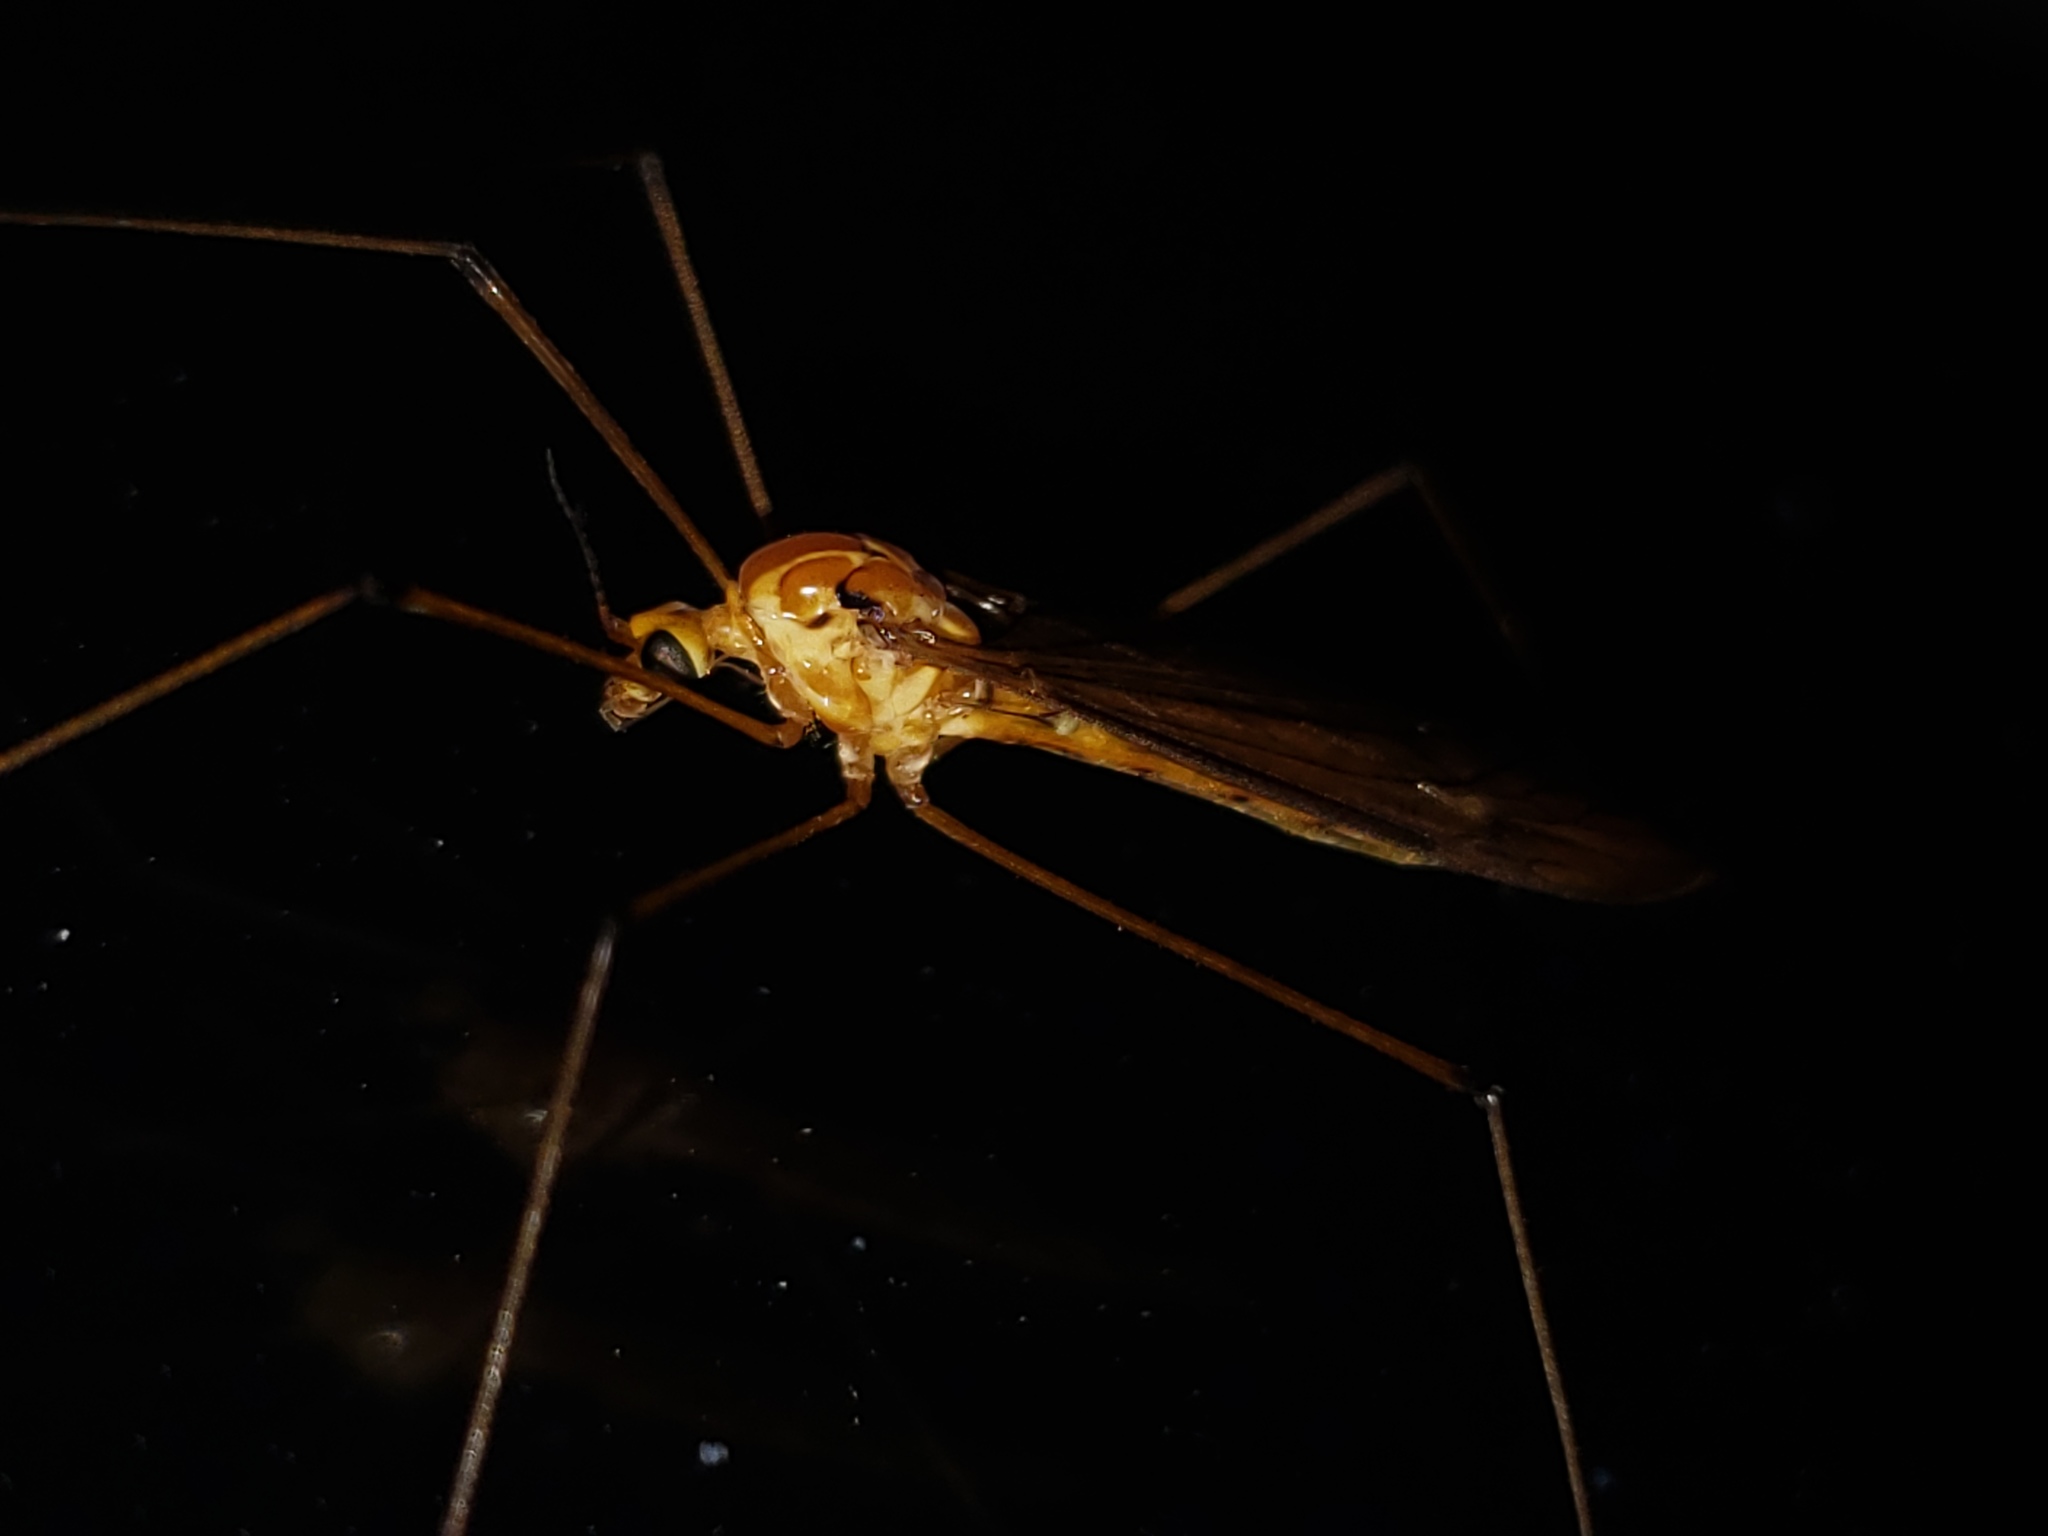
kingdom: Animalia
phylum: Arthropoda
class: Insecta
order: Diptera
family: Tipulidae
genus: Nephrotoma
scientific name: Nephrotoma suturalis
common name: Cranefly
